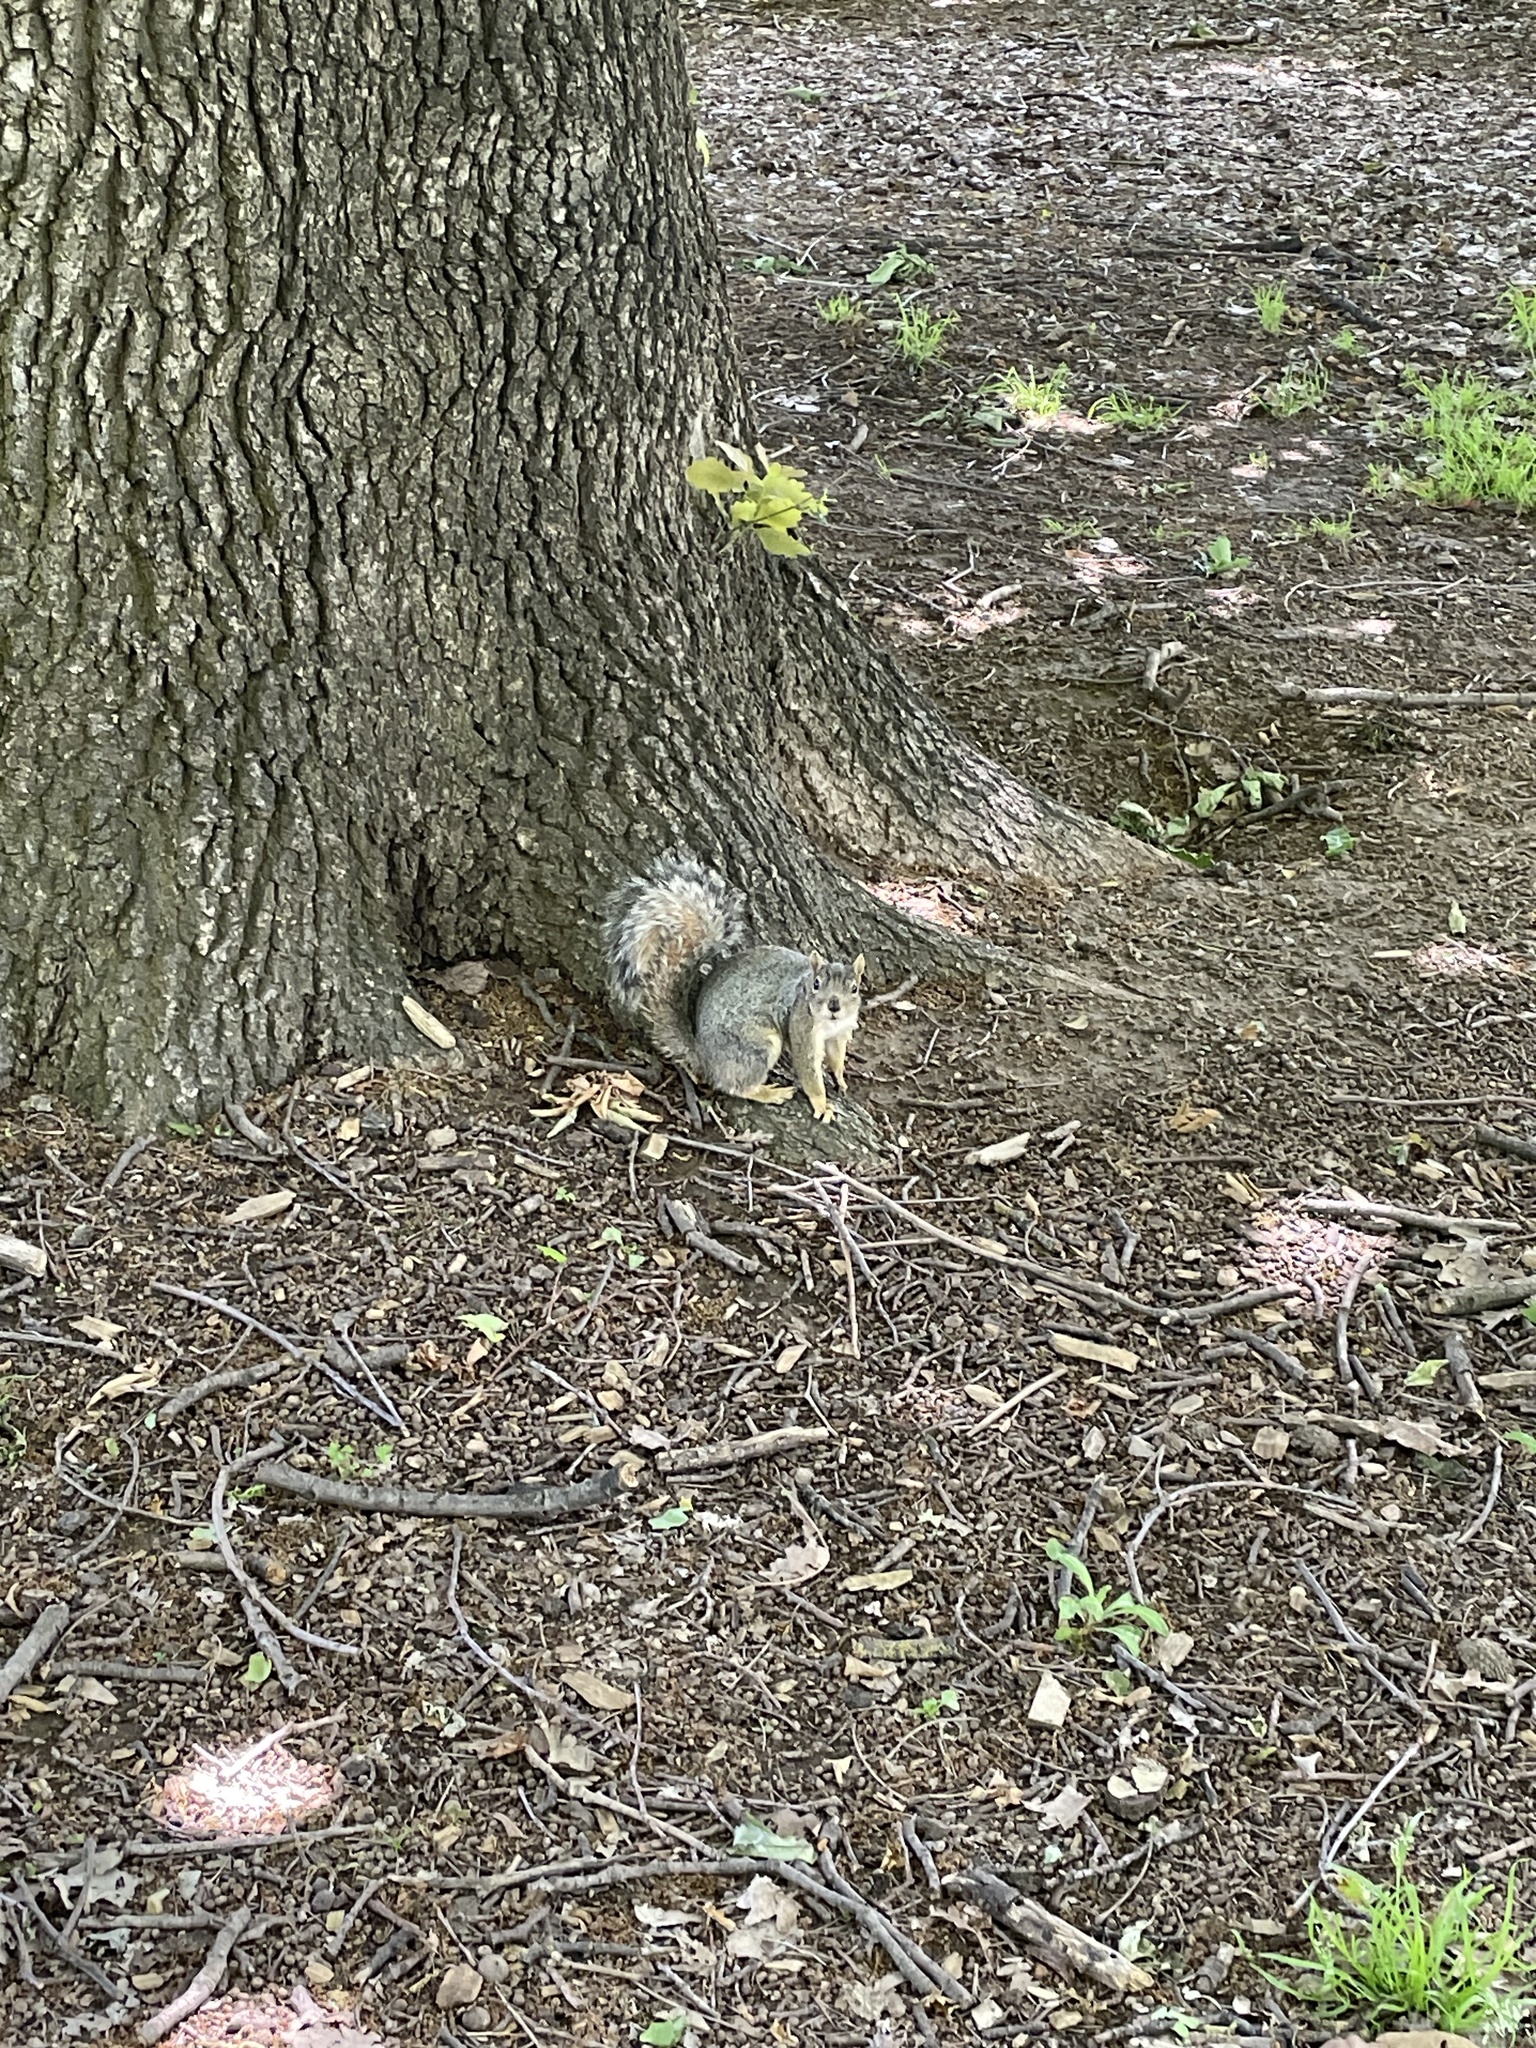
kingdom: Animalia
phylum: Chordata
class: Mammalia
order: Rodentia
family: Sciuridae
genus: Sciurus
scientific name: Sciurus niger
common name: Fox squirrel
